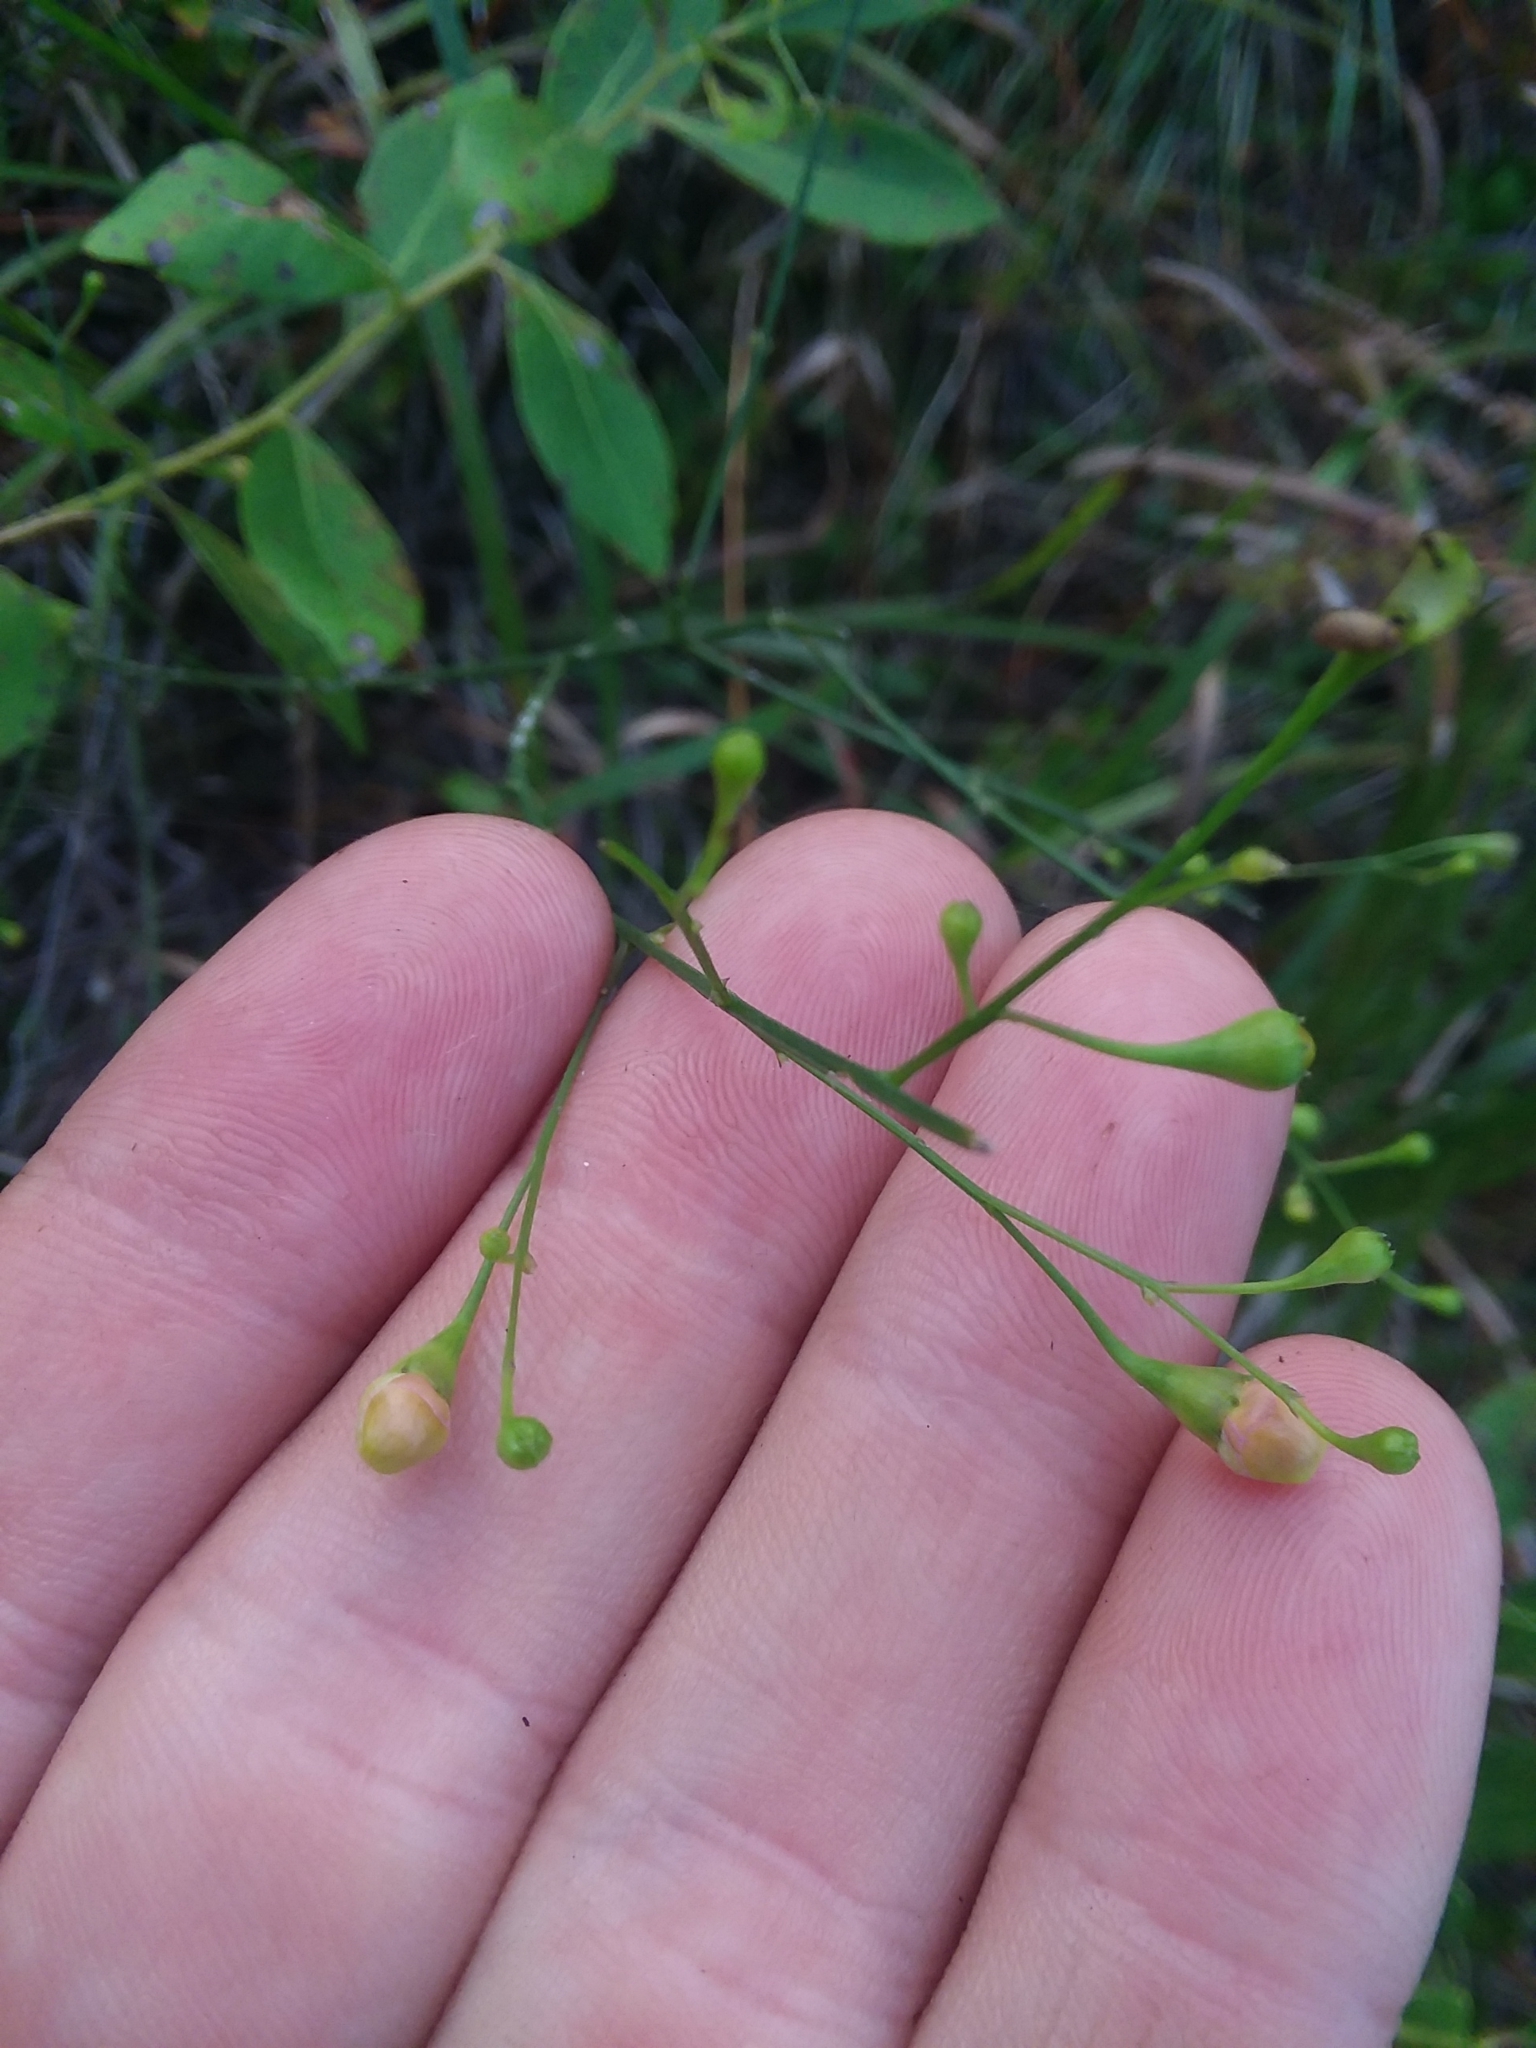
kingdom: Plantae
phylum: Tracheophyta
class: Magnoliopsida
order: Lamiales
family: Orobanchaceae
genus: Agalinis
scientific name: Agalinis oligophylla
